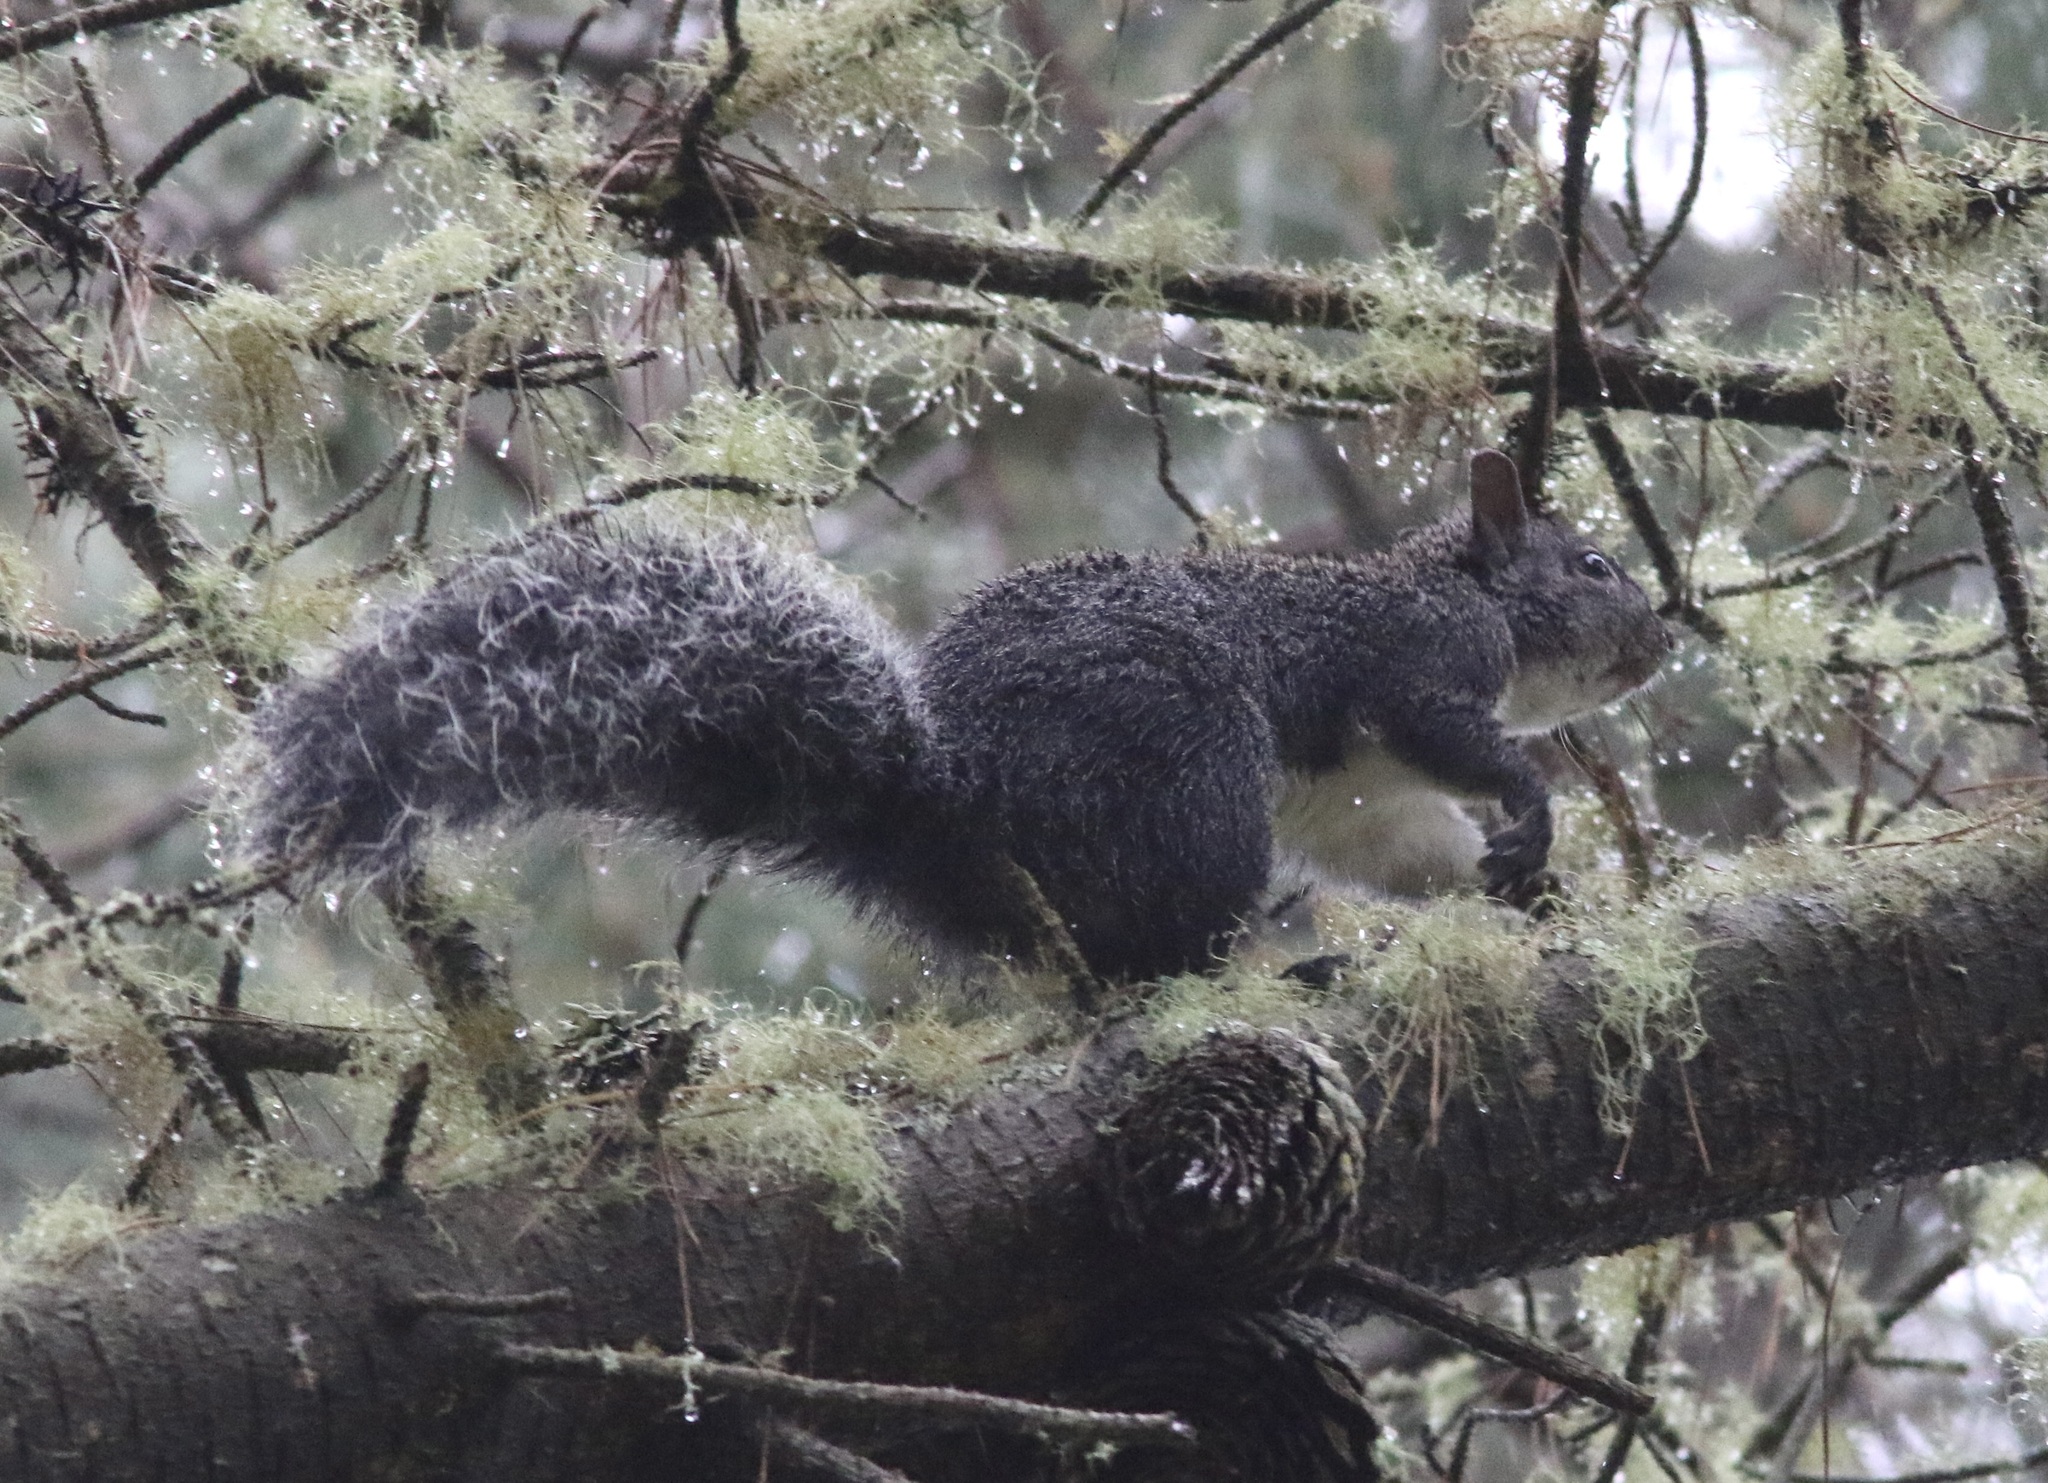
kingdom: Animalia
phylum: Chordata
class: Mammalia
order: Rodentia
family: Sciuridae
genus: Sciurus
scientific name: Sciurus griseus
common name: Western gray squirrel
